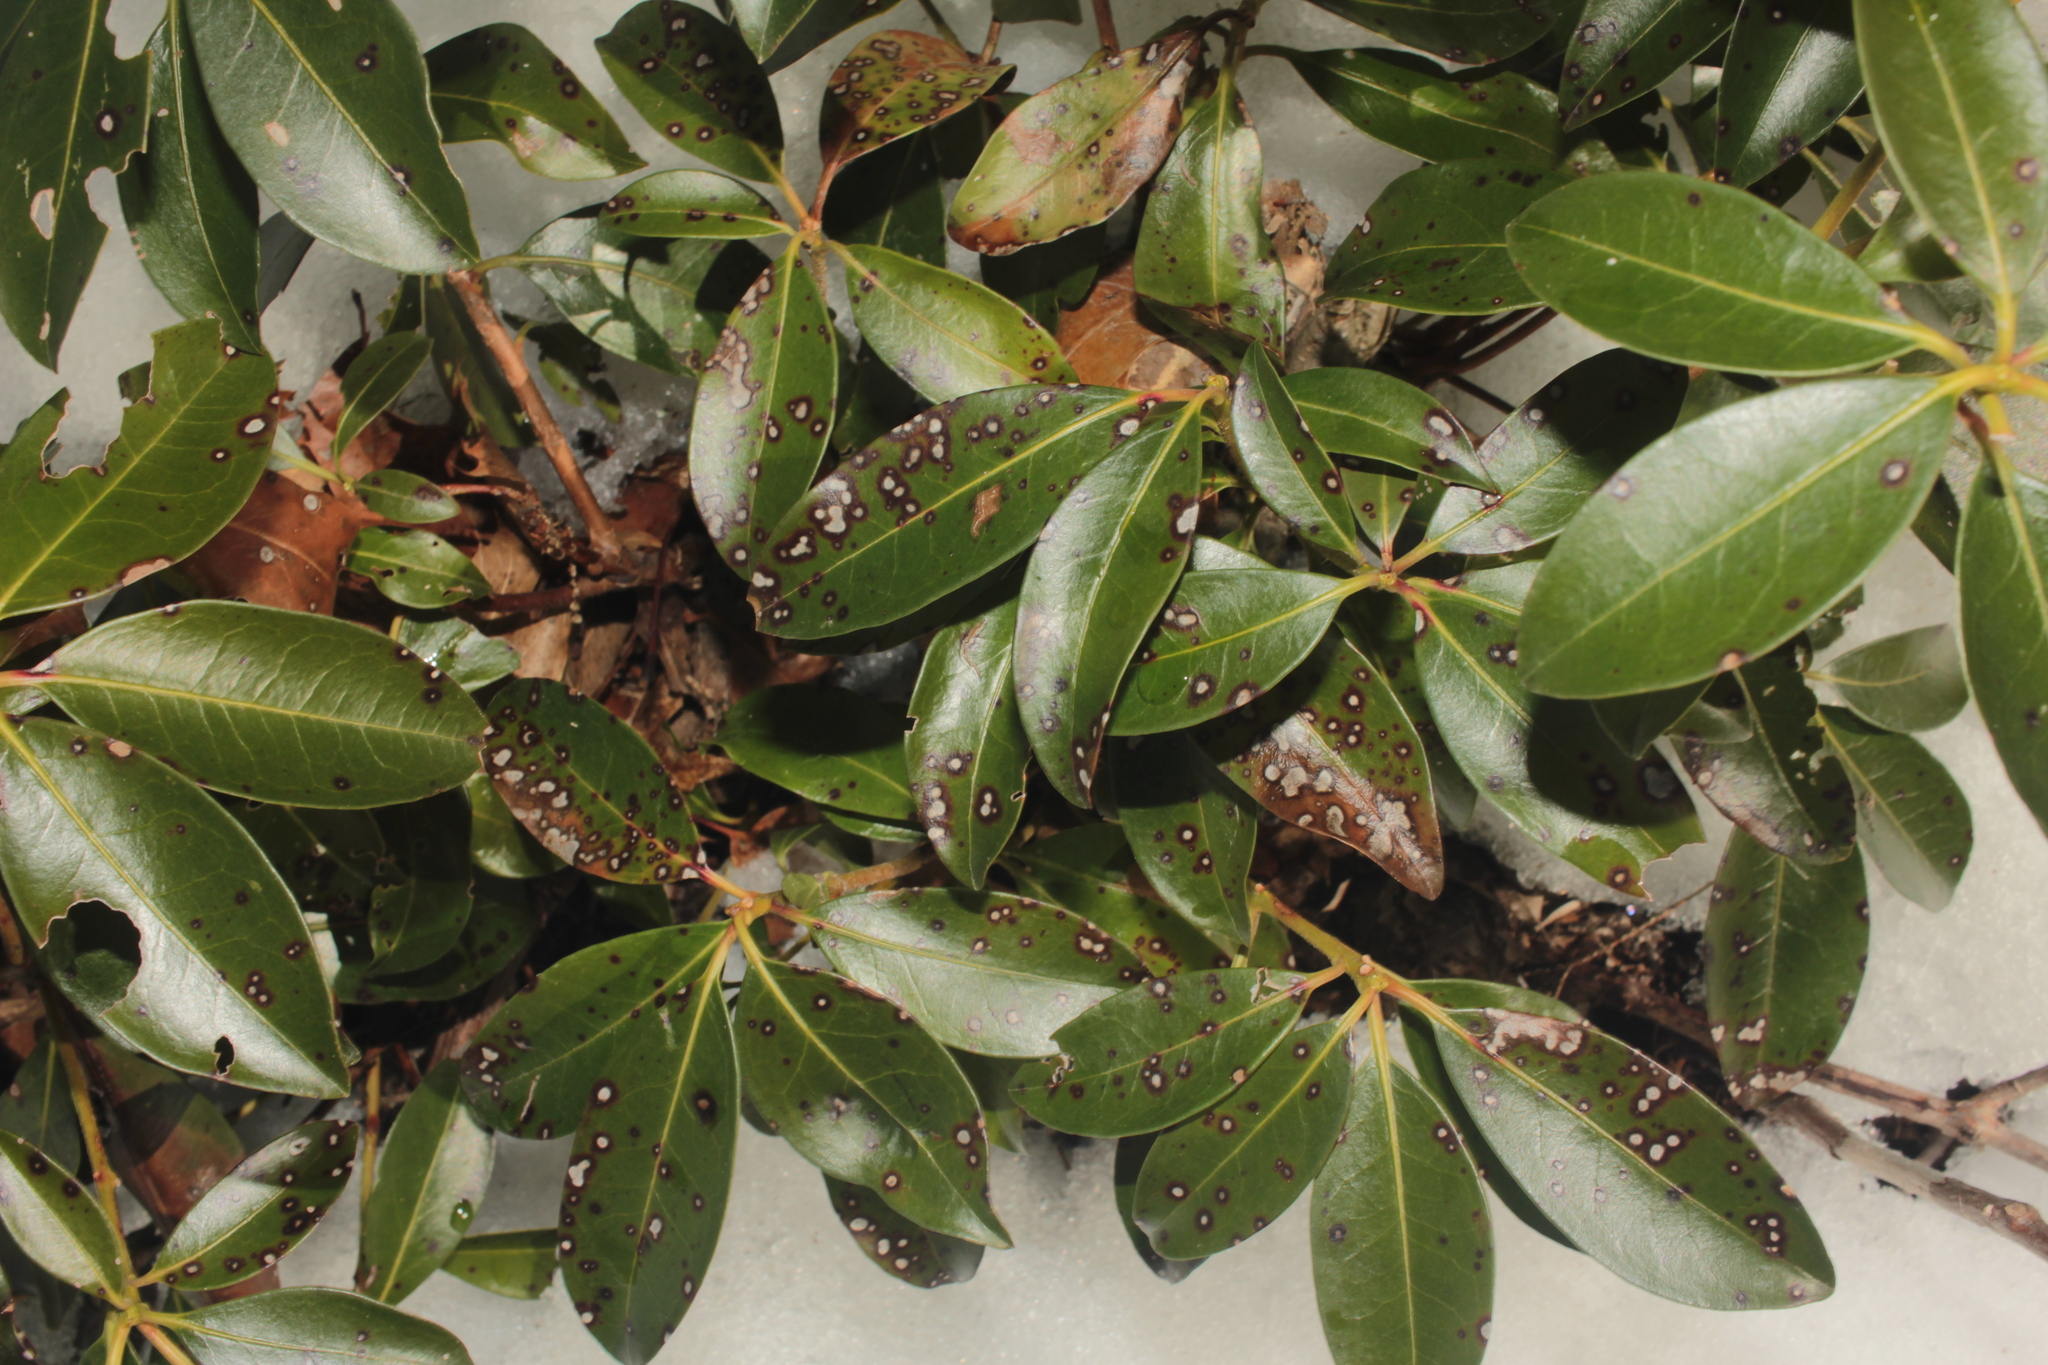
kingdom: Plantae
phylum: Tracheophyta
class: Magnoliopsida
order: Ericales
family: Ericaceae
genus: Kalmia
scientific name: Kalmia latifolia
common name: Mountain-laurel
